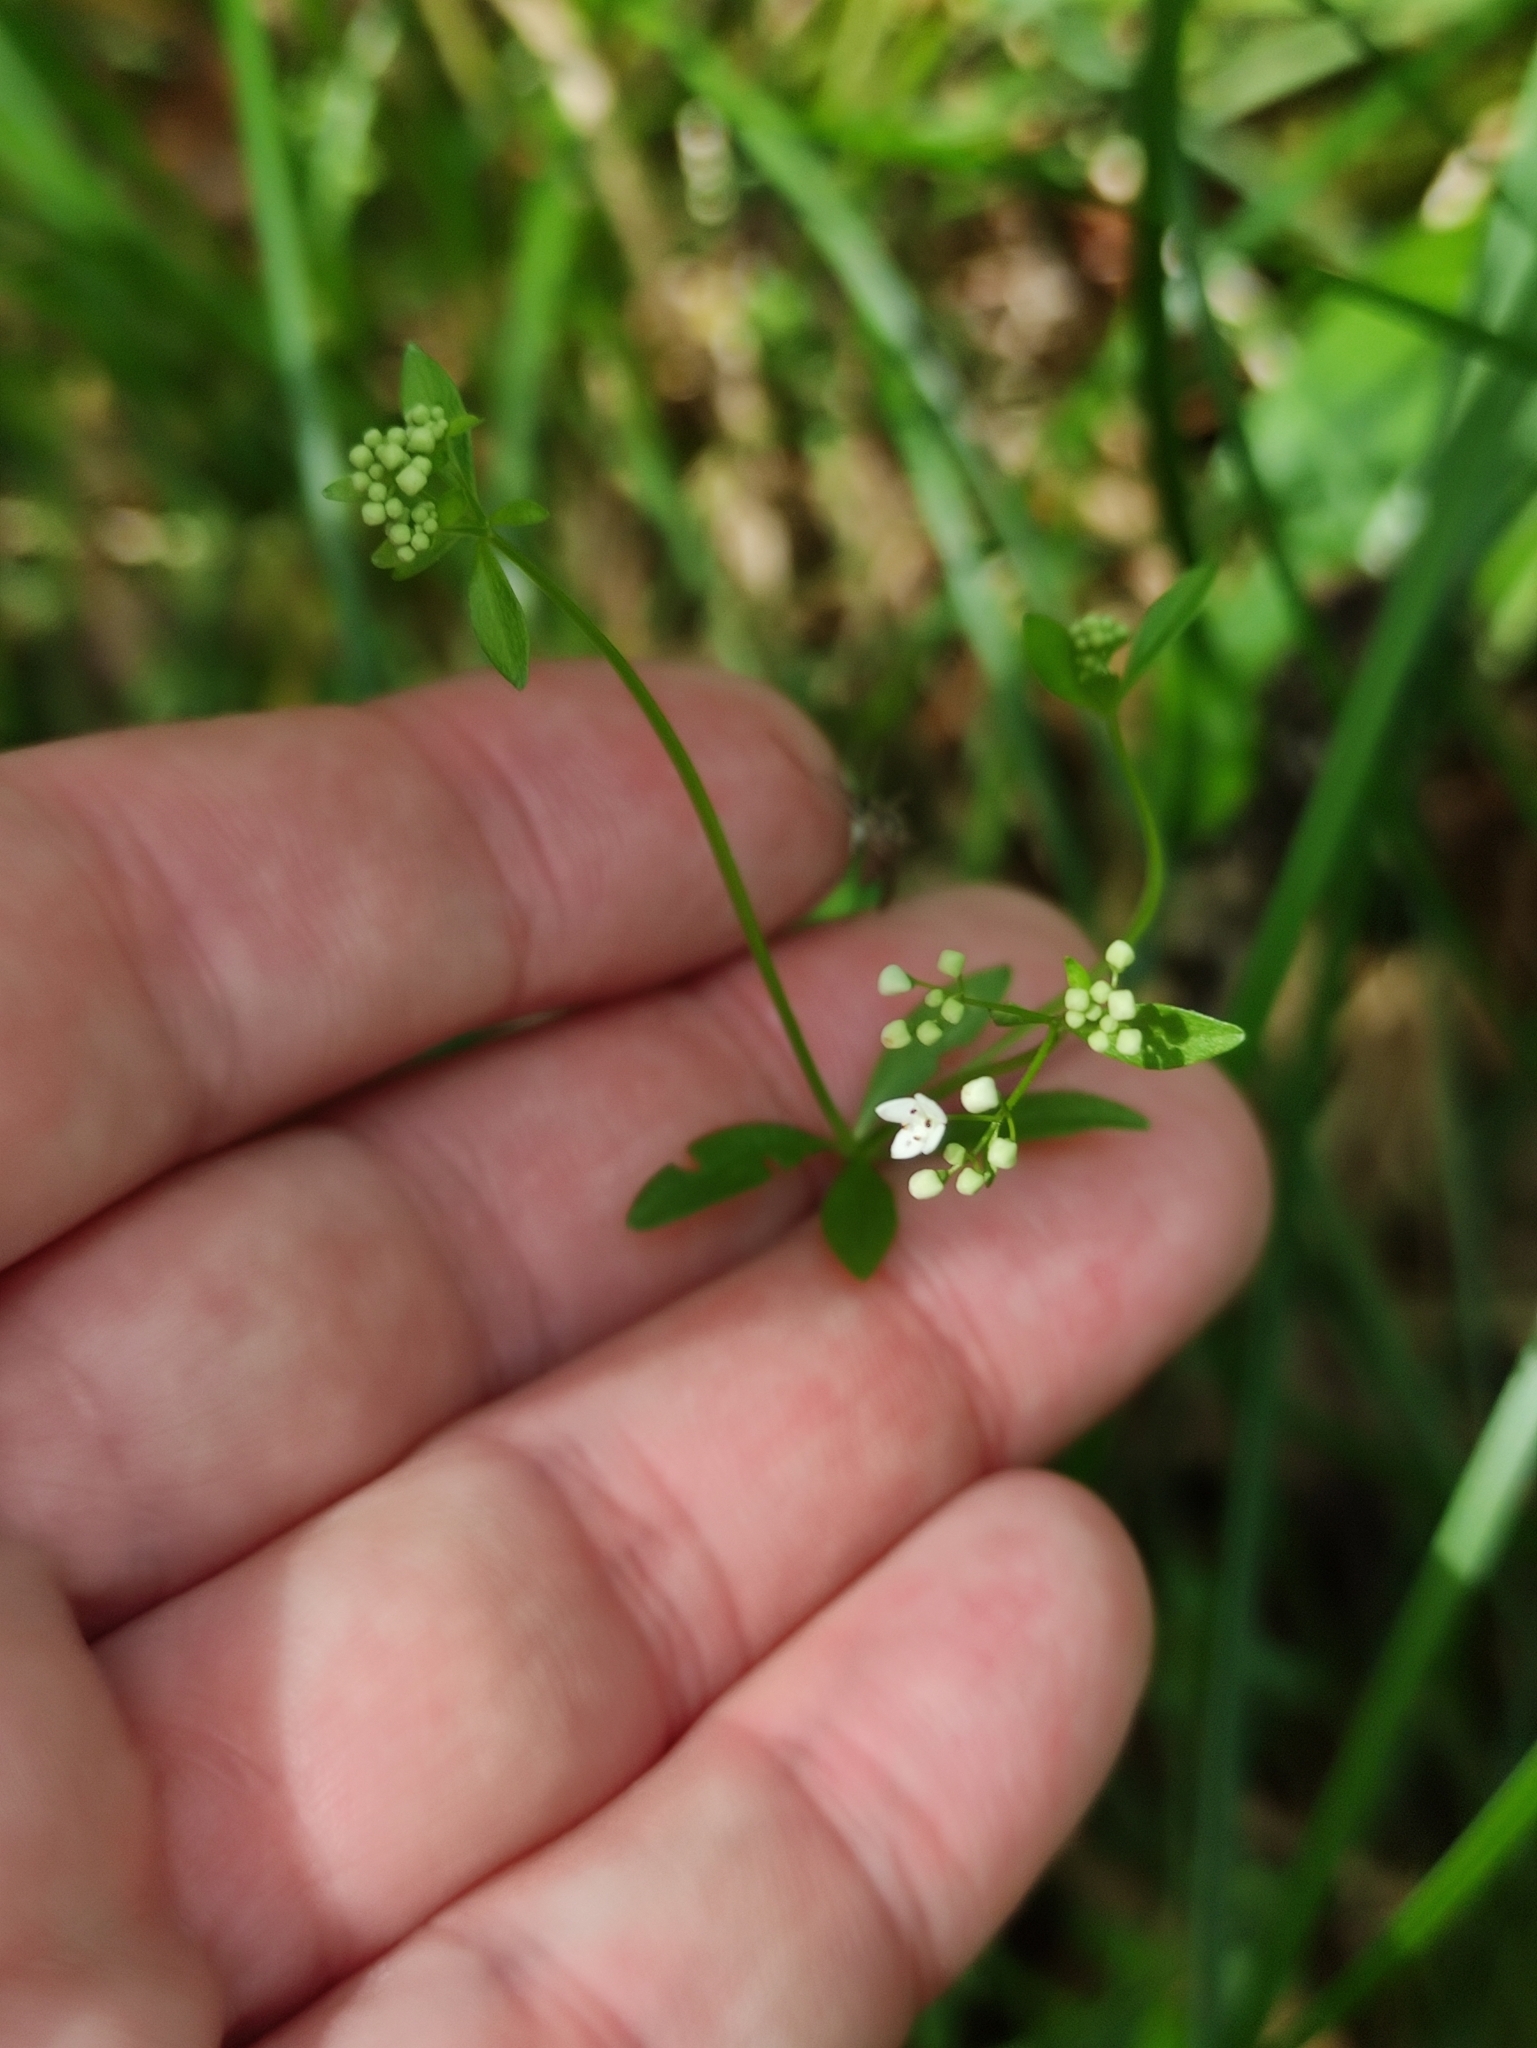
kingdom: Plantae
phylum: Tracheophyta
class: Magnoliopsida
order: Gentianales
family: Rubiaceae
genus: Galium
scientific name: Galium palustre
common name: Common marsh-bedstraw
